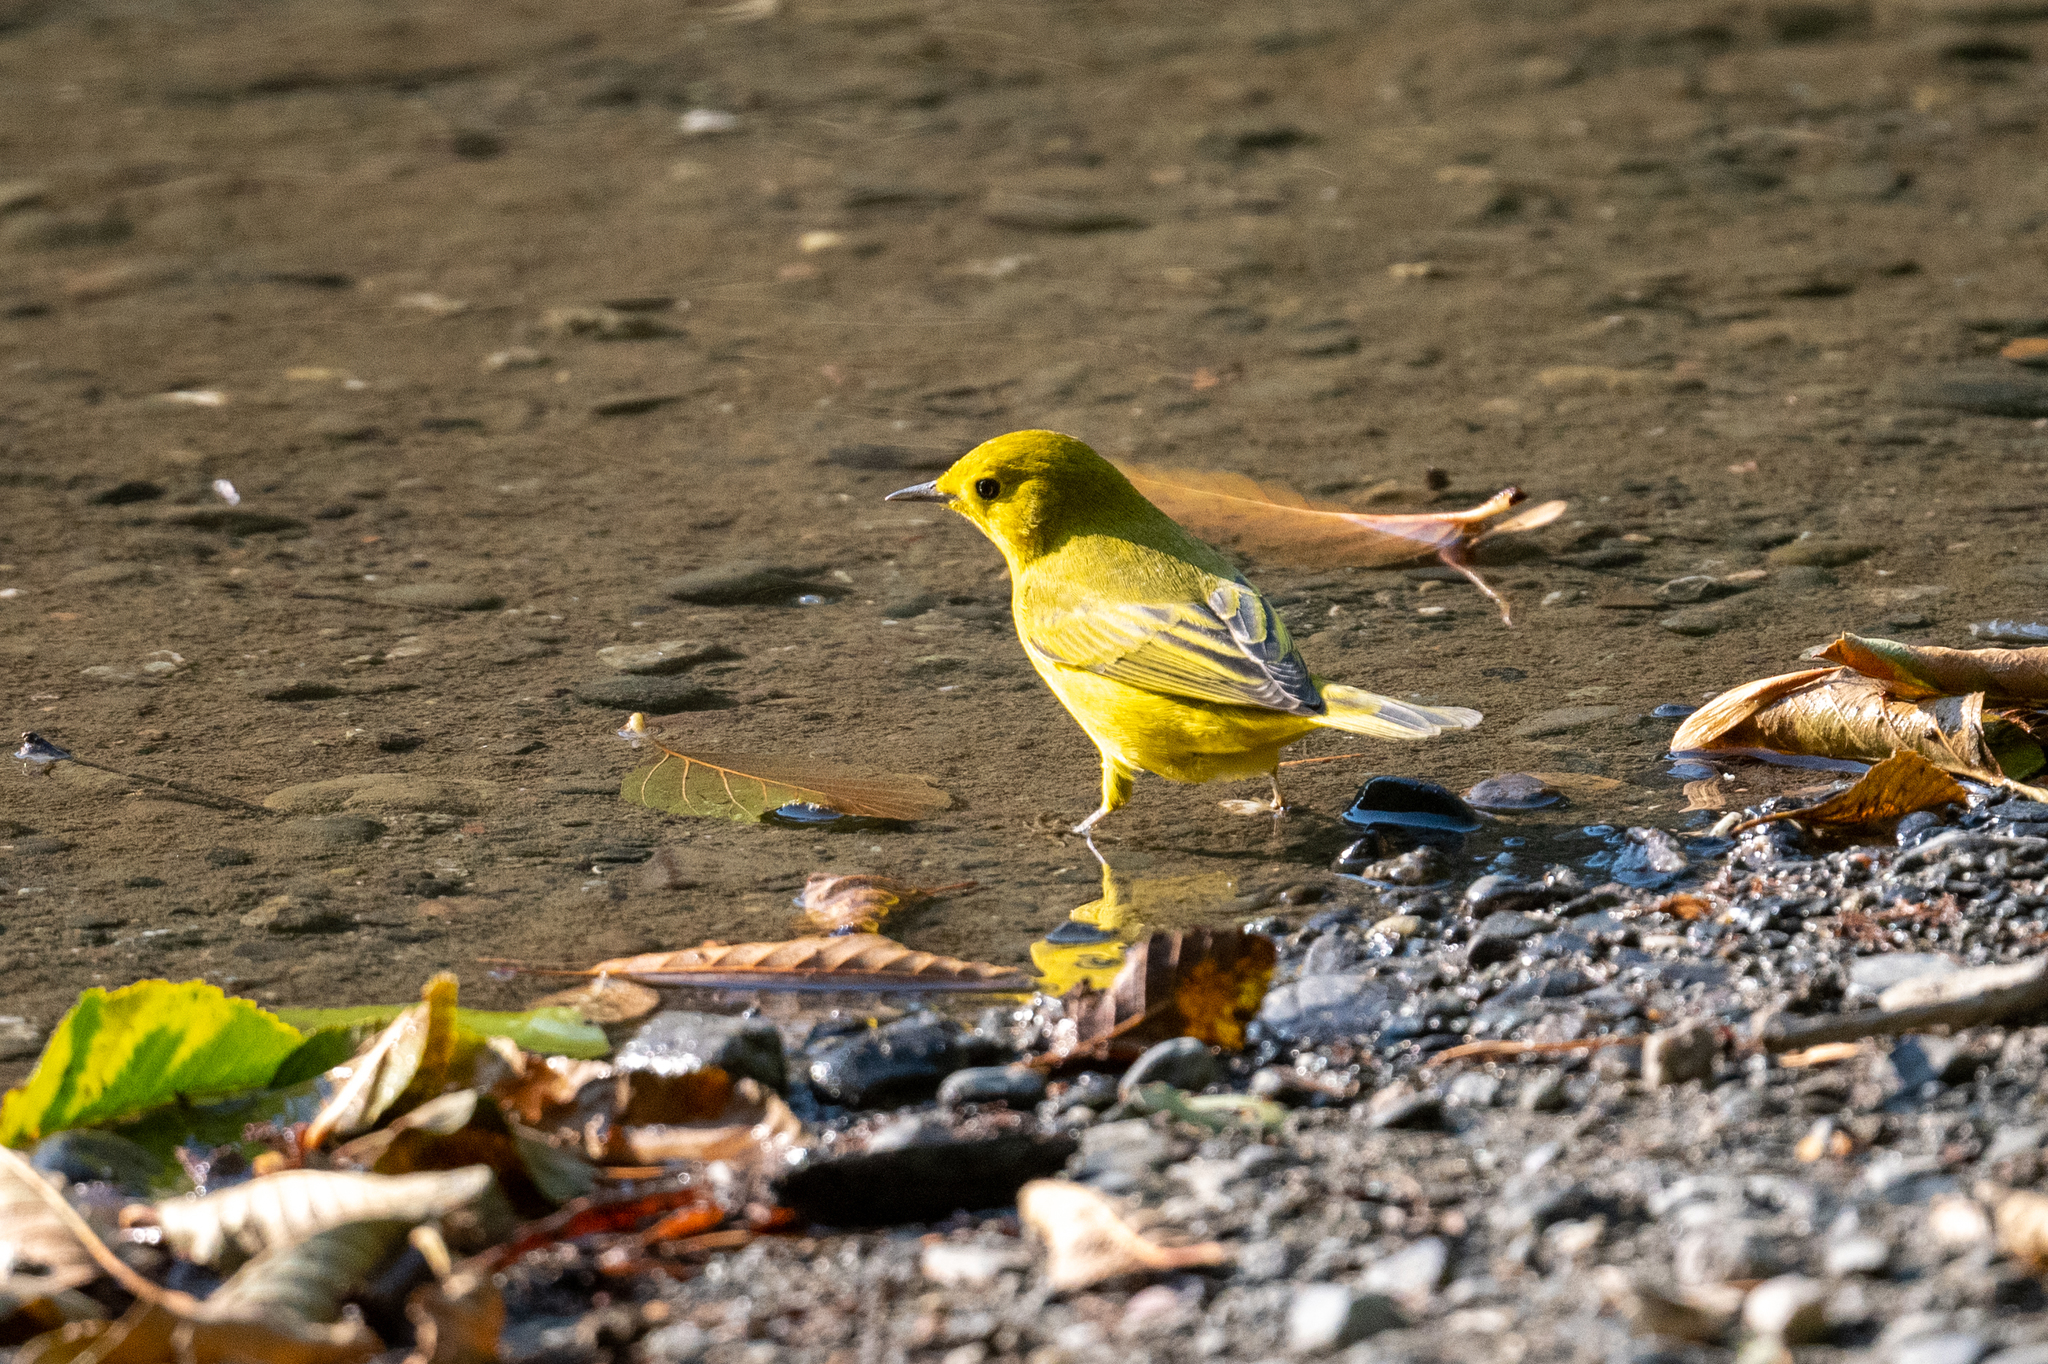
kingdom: Animalia
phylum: Chordata
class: Aves
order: Passeriformes
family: Parulidae
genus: Setophaga
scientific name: Setophaga petechia
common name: Yellow warbler
